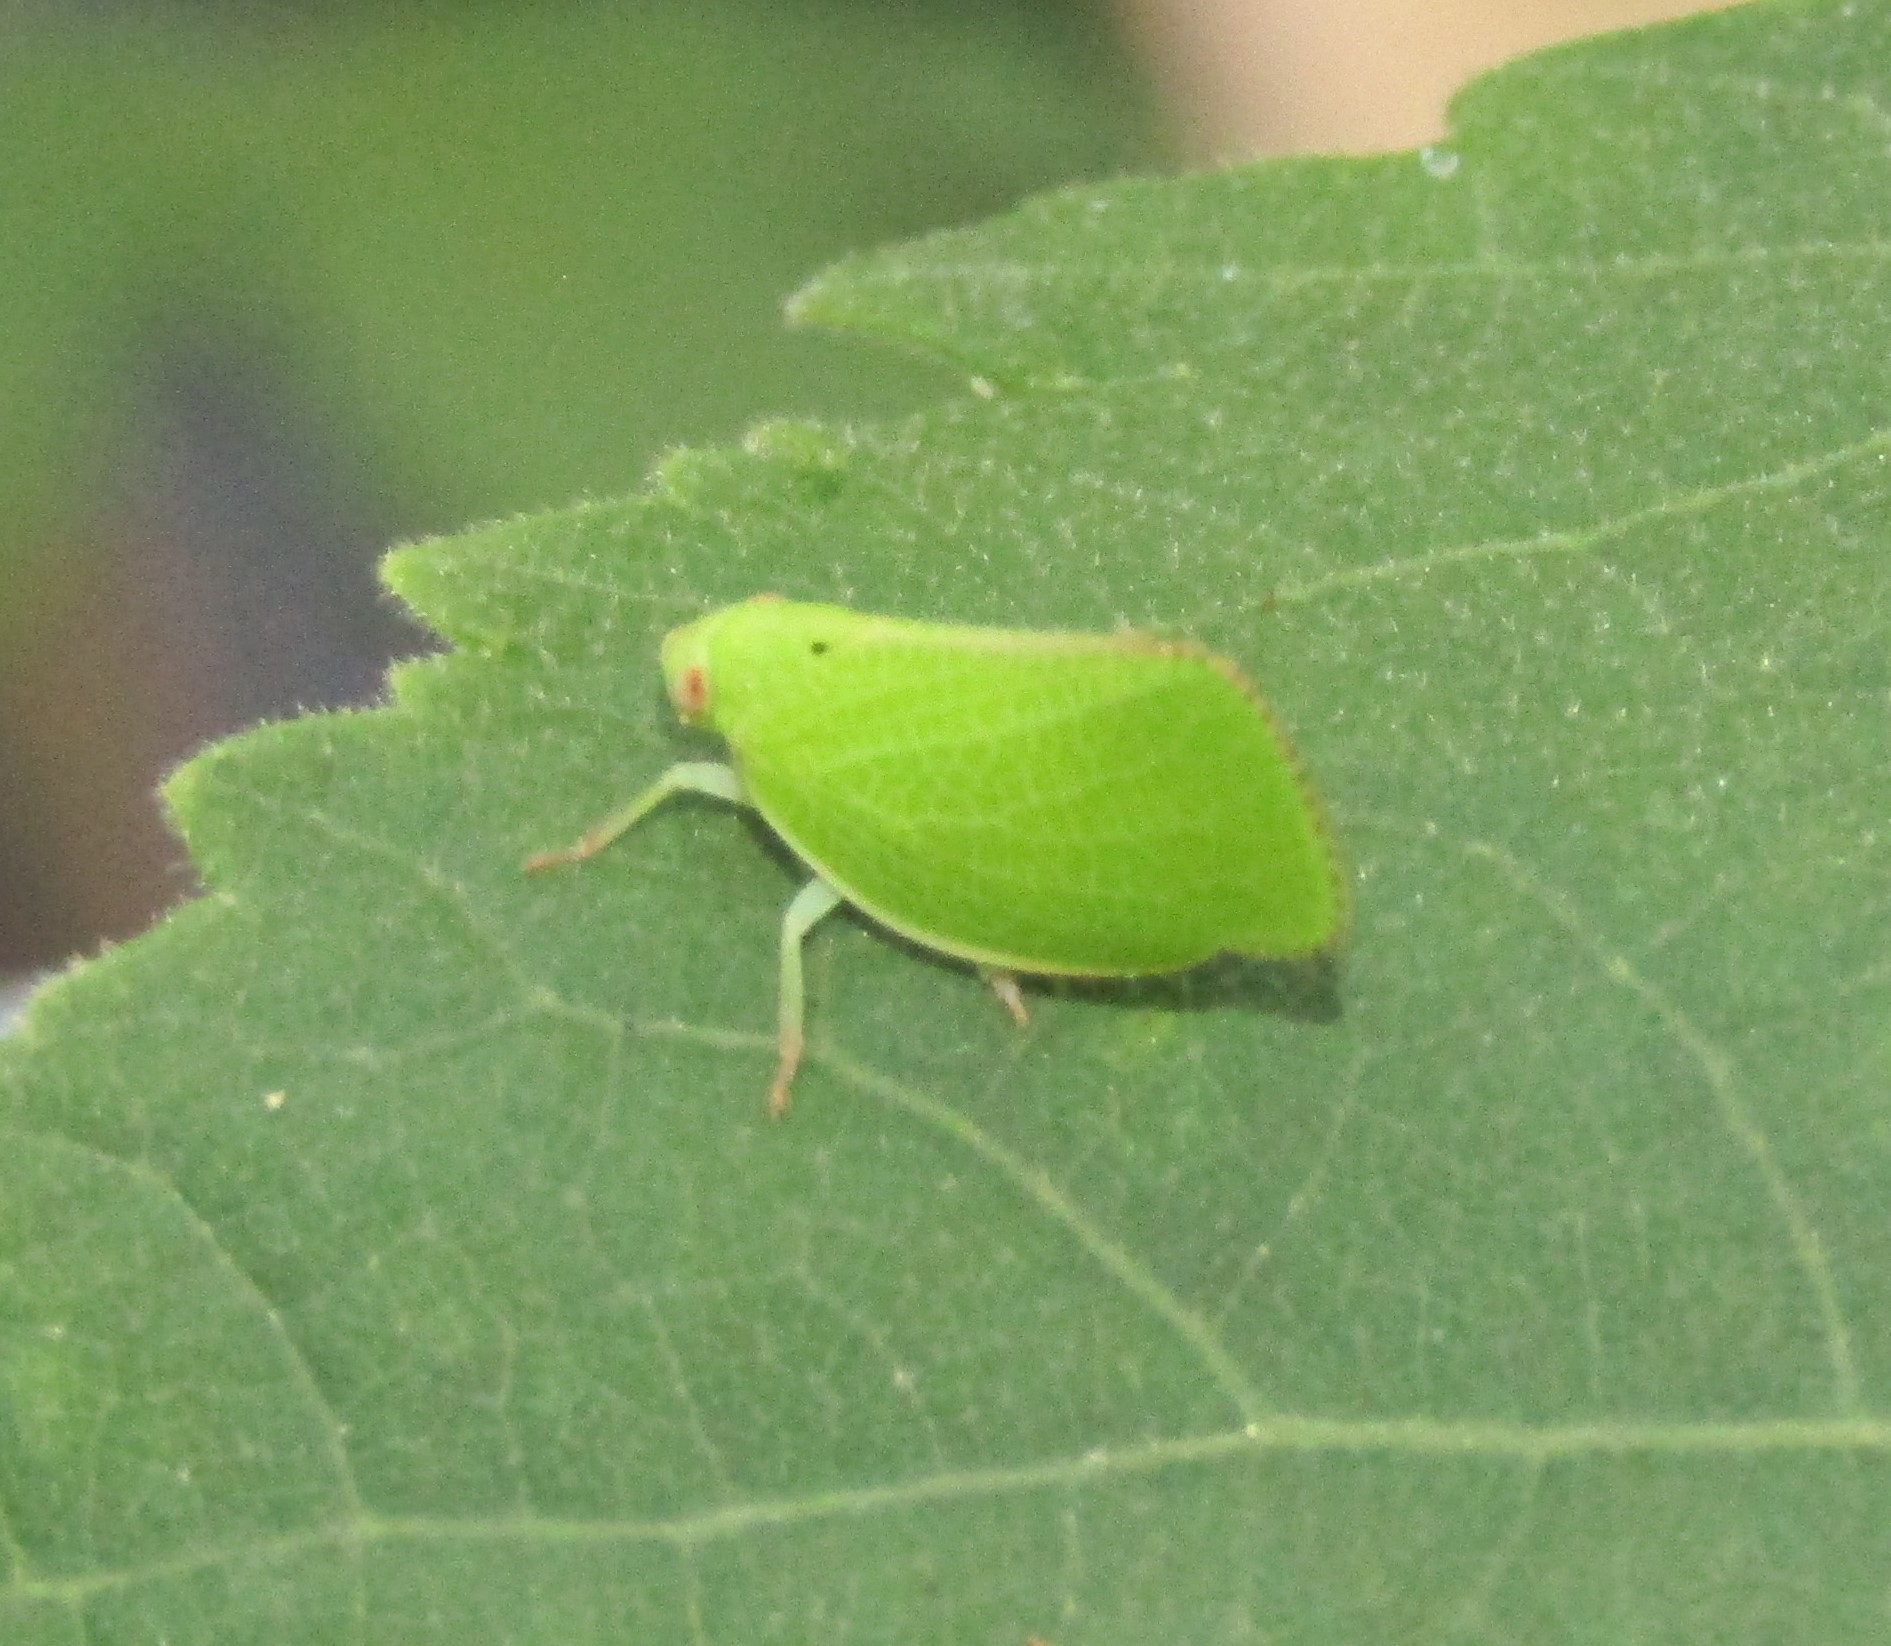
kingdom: Animalia
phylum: Arthropoda
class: Insecta
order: Hemiptera
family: Acanaloniidae
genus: Acanalonia
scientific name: Acanalonia conica
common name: Green cone-headed planthopper
